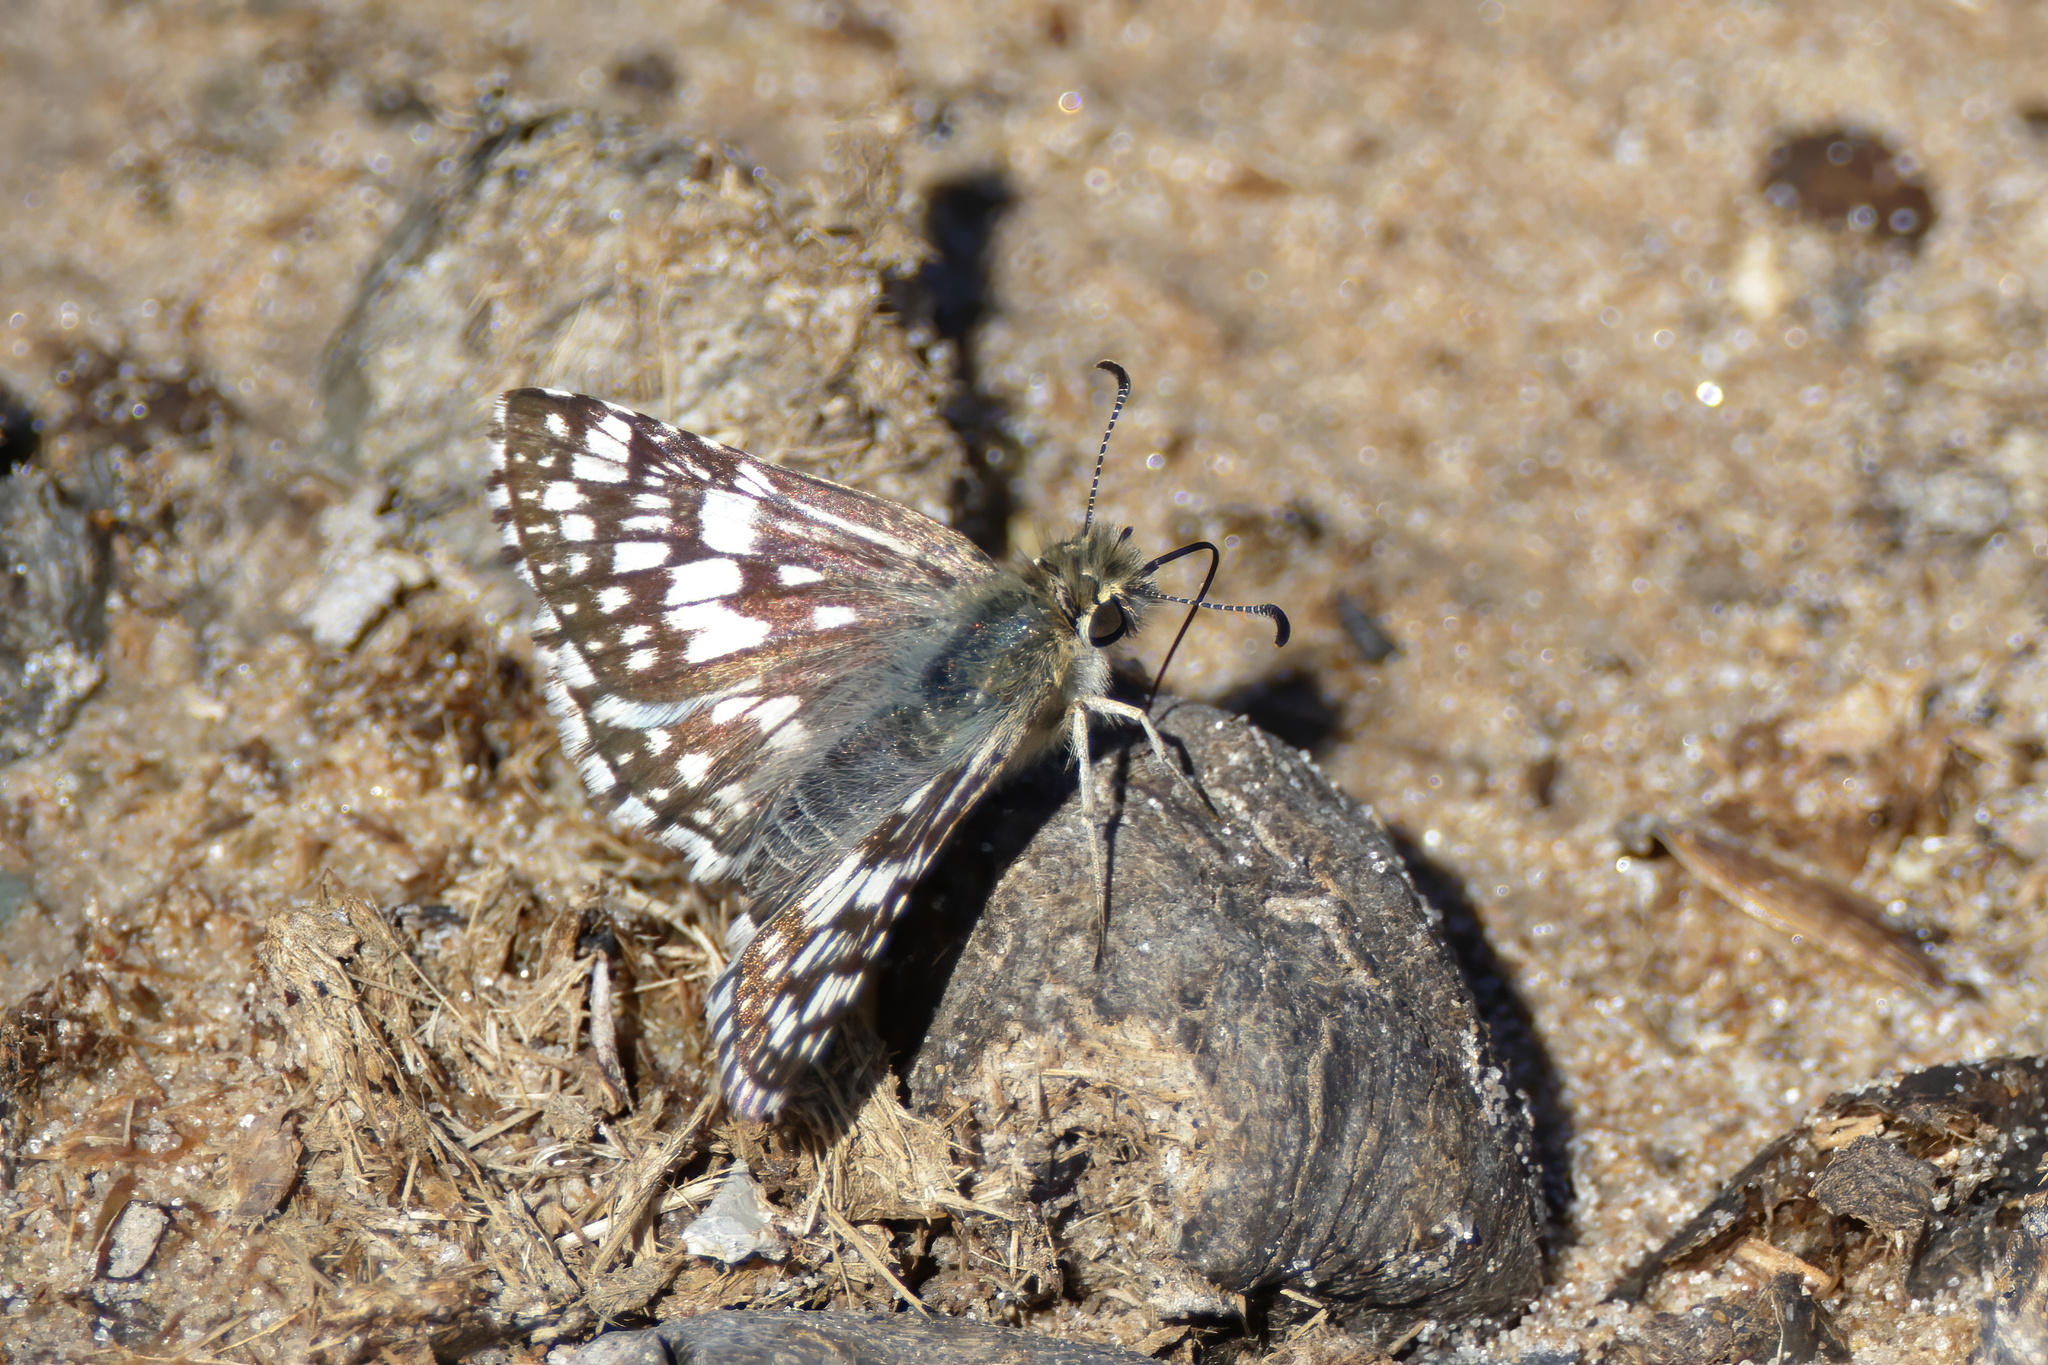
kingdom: Animalia
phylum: Arthropoda
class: Insecta
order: Lepidoptera
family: Hesperiidae
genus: Burnsius
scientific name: Burnsius albezens
